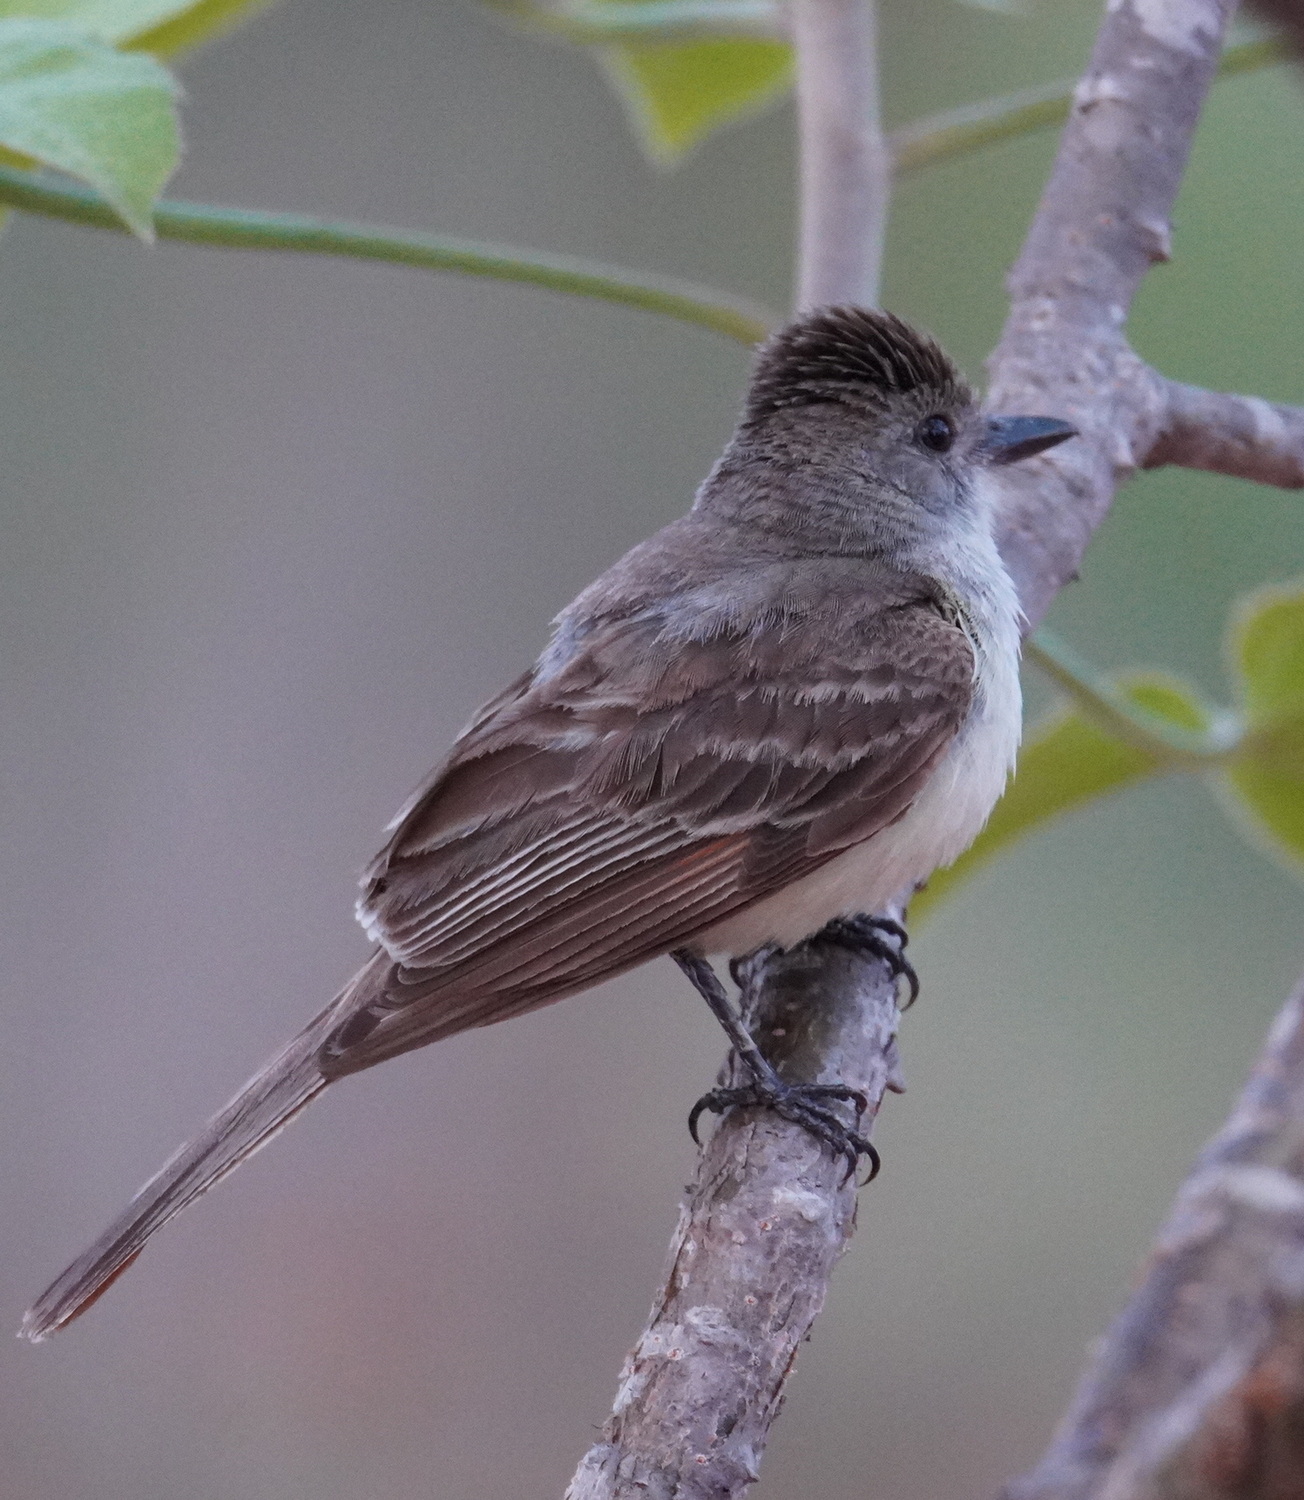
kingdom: Animalia
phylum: Chordata
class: Aves
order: Passeriformes
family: Tyrannidae
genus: Myiarchus
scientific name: Myiarchus tyrannulus
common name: Brown-crested flycatcher
